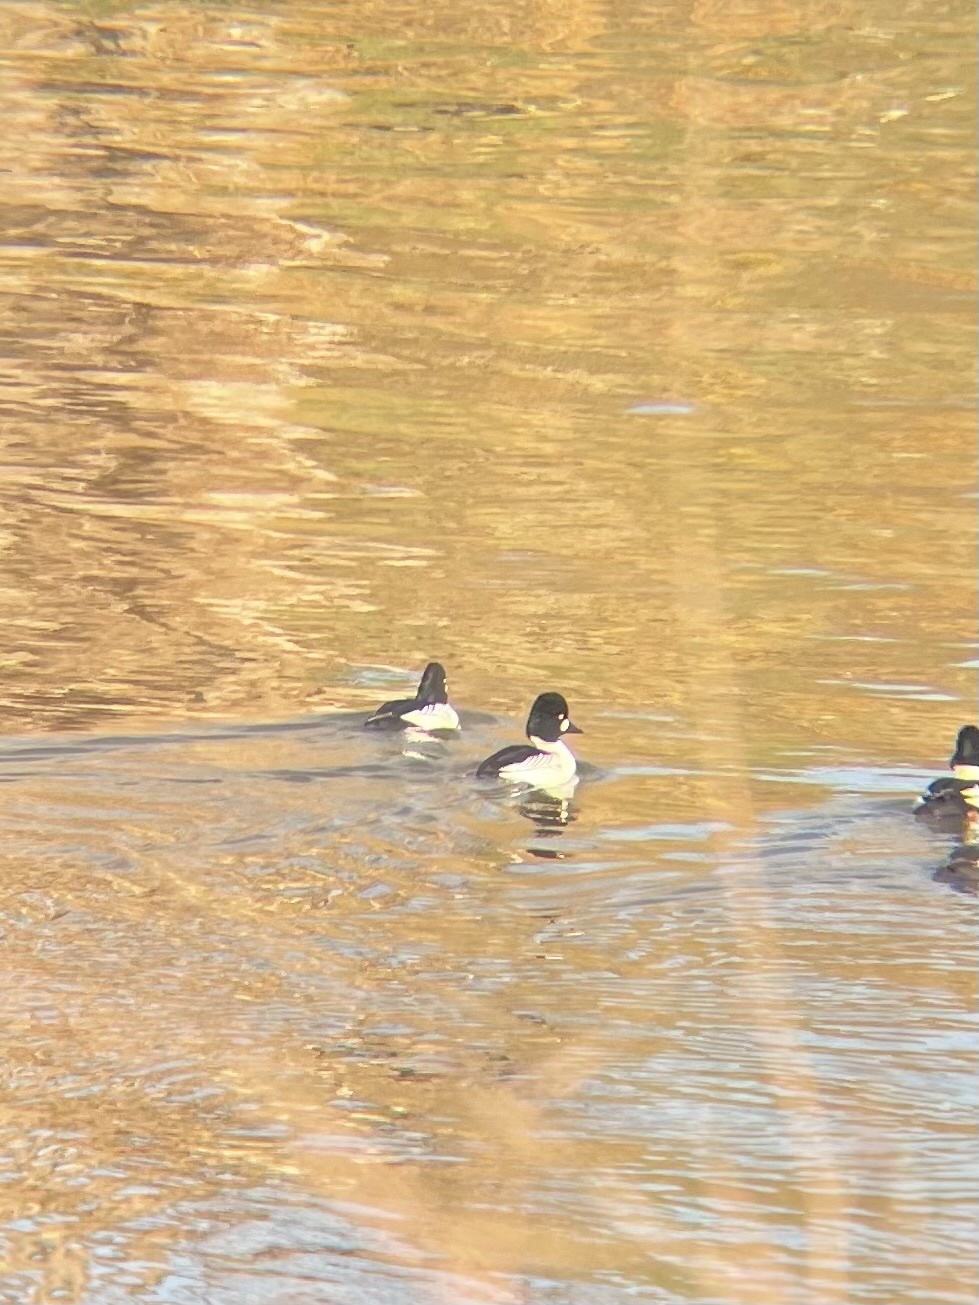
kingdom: Animalia
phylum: Chordata
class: Aves
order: Anseriformes
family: Anatidae
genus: Bucephala
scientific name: Bucephala clangula
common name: Common goldeneye
